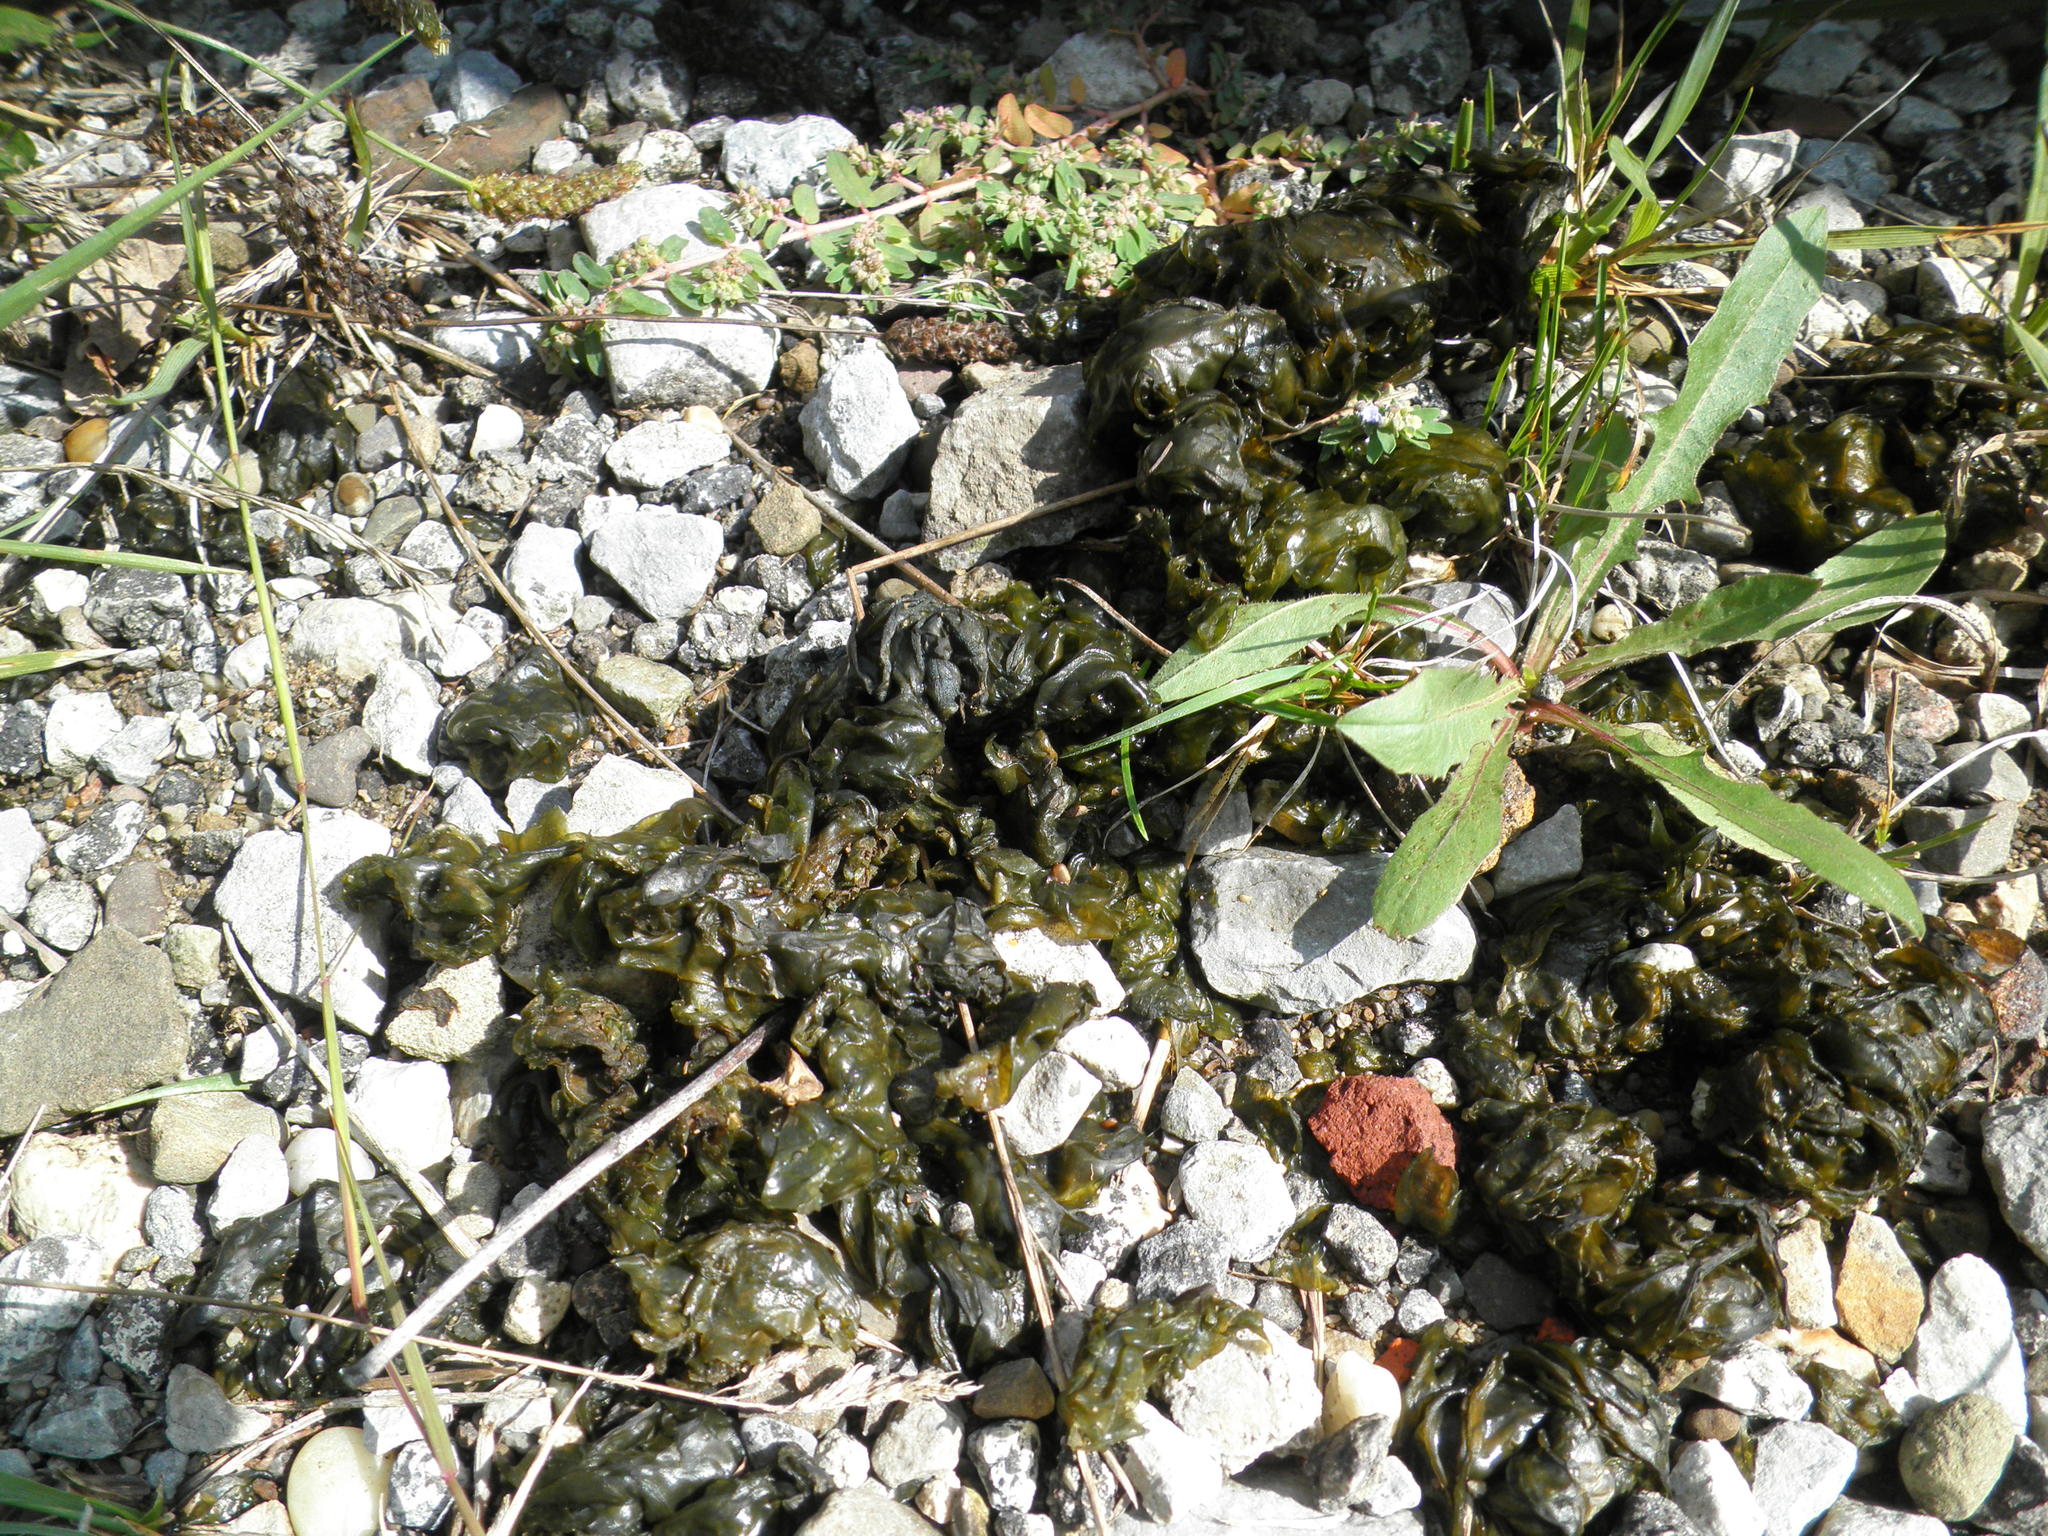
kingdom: Bacteria
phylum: Cyanobacteria
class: Cyanobacteriia
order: Cyanobacteriales
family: Nostocaceae
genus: Nostoc
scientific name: Nostoc commune
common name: Star jelly
